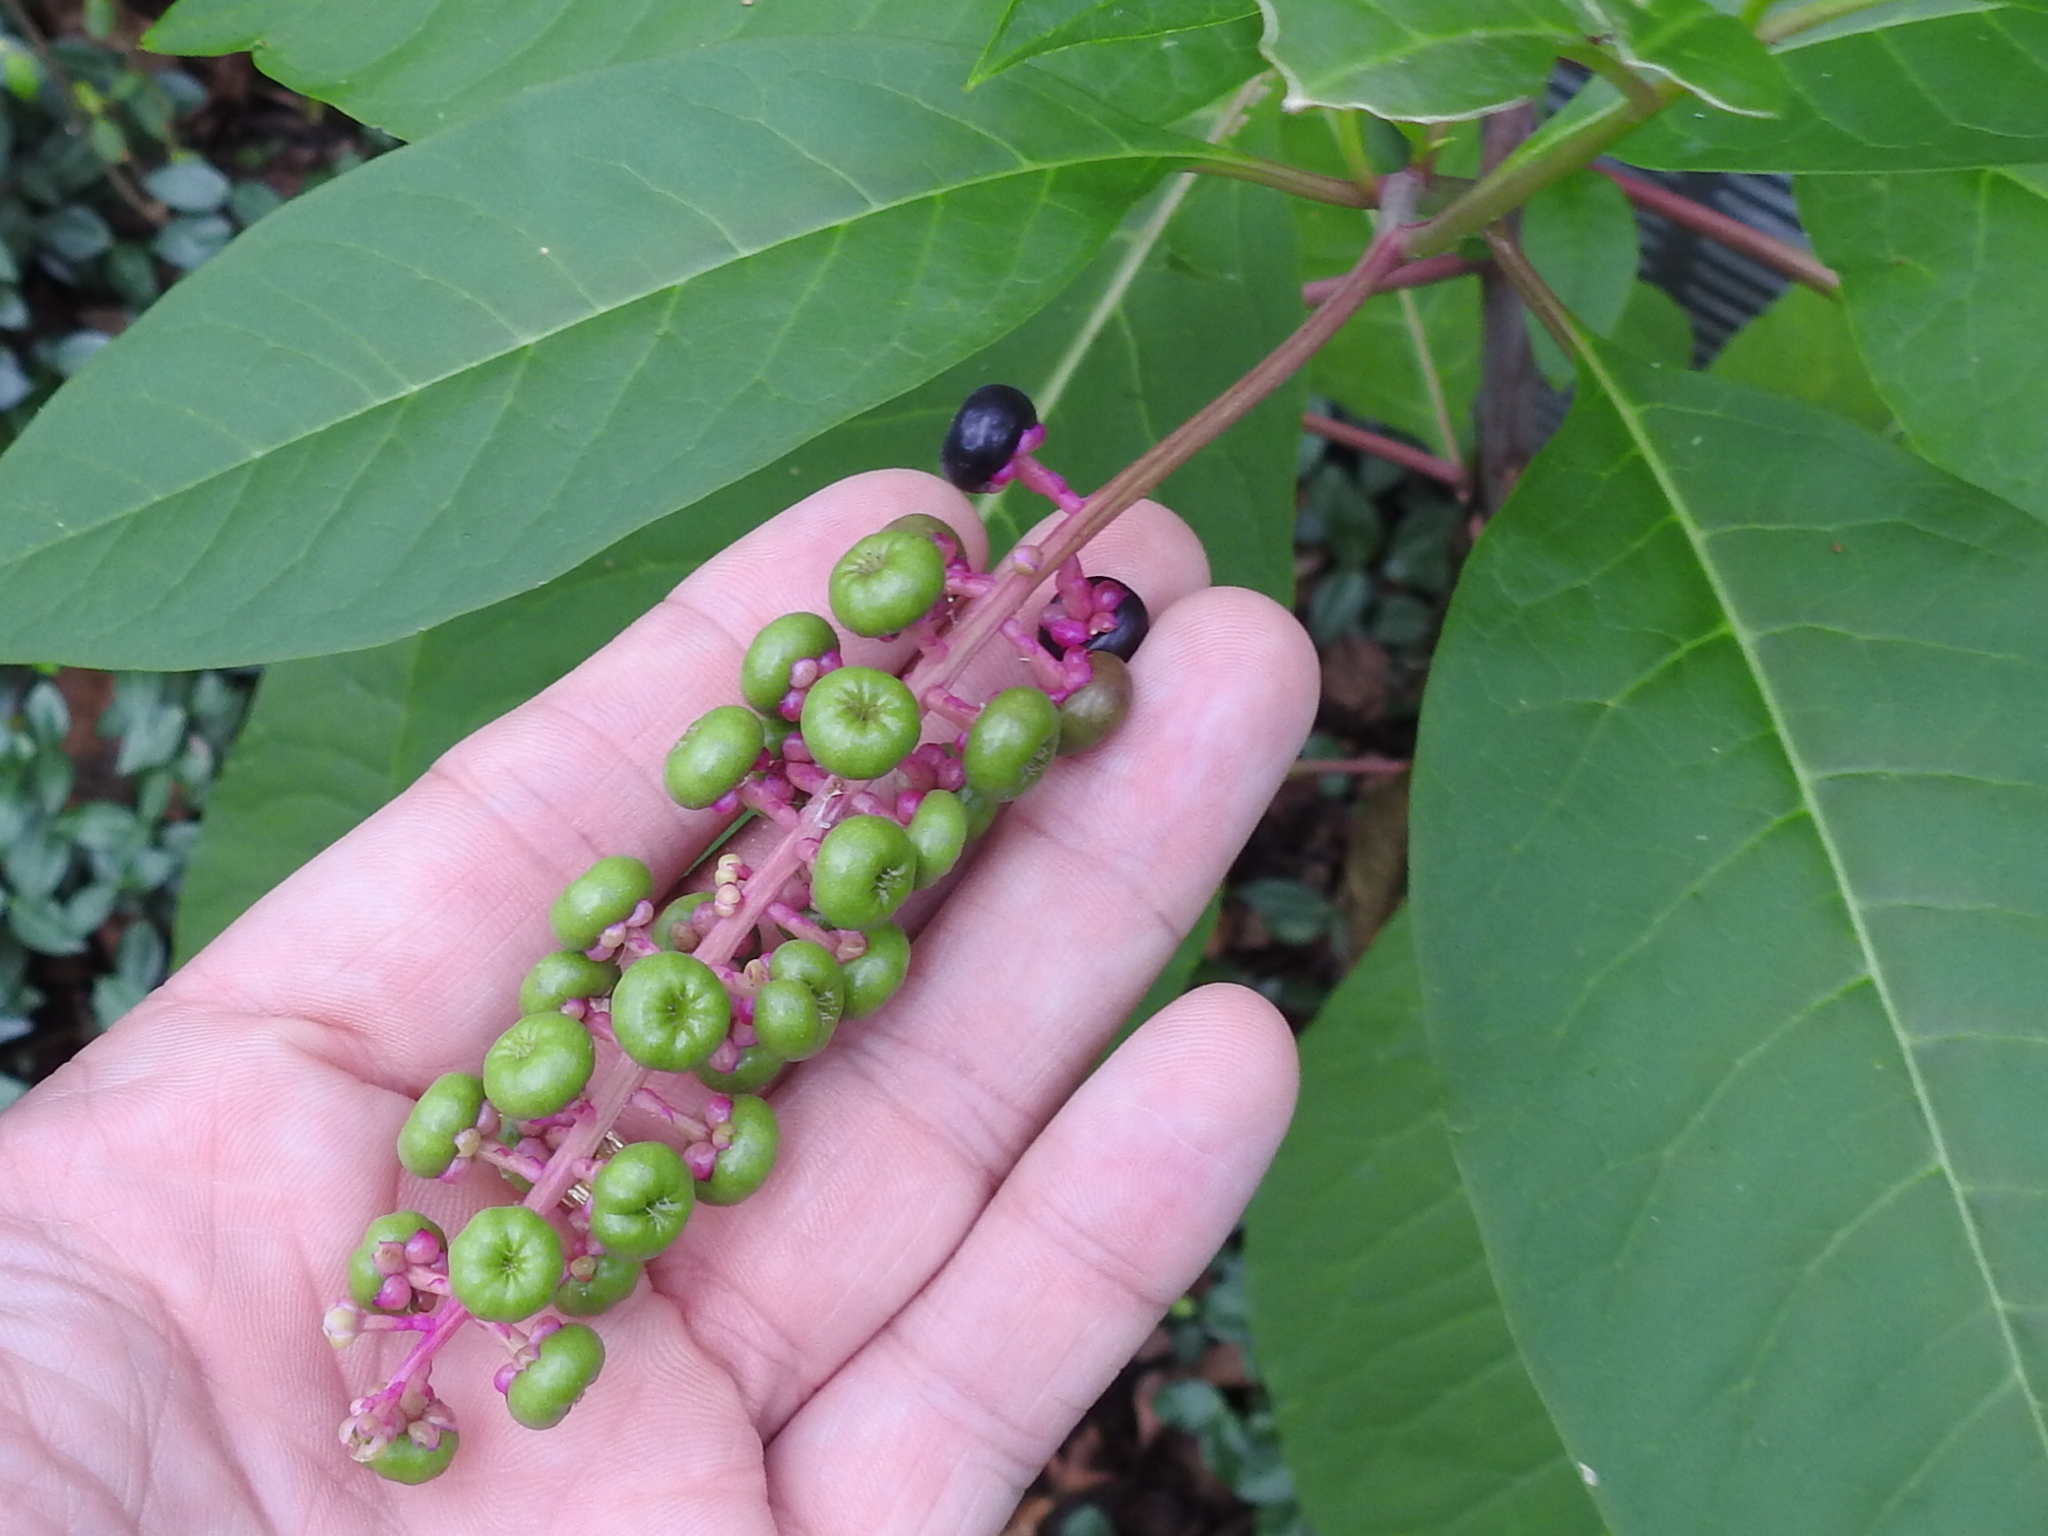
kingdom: Plantae
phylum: Tracheophyta
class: Magnoliopsida
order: Caryophyllales
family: Phytolaccaceae
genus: Phytolacca
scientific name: Phytolacca americana
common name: American pokeweed
